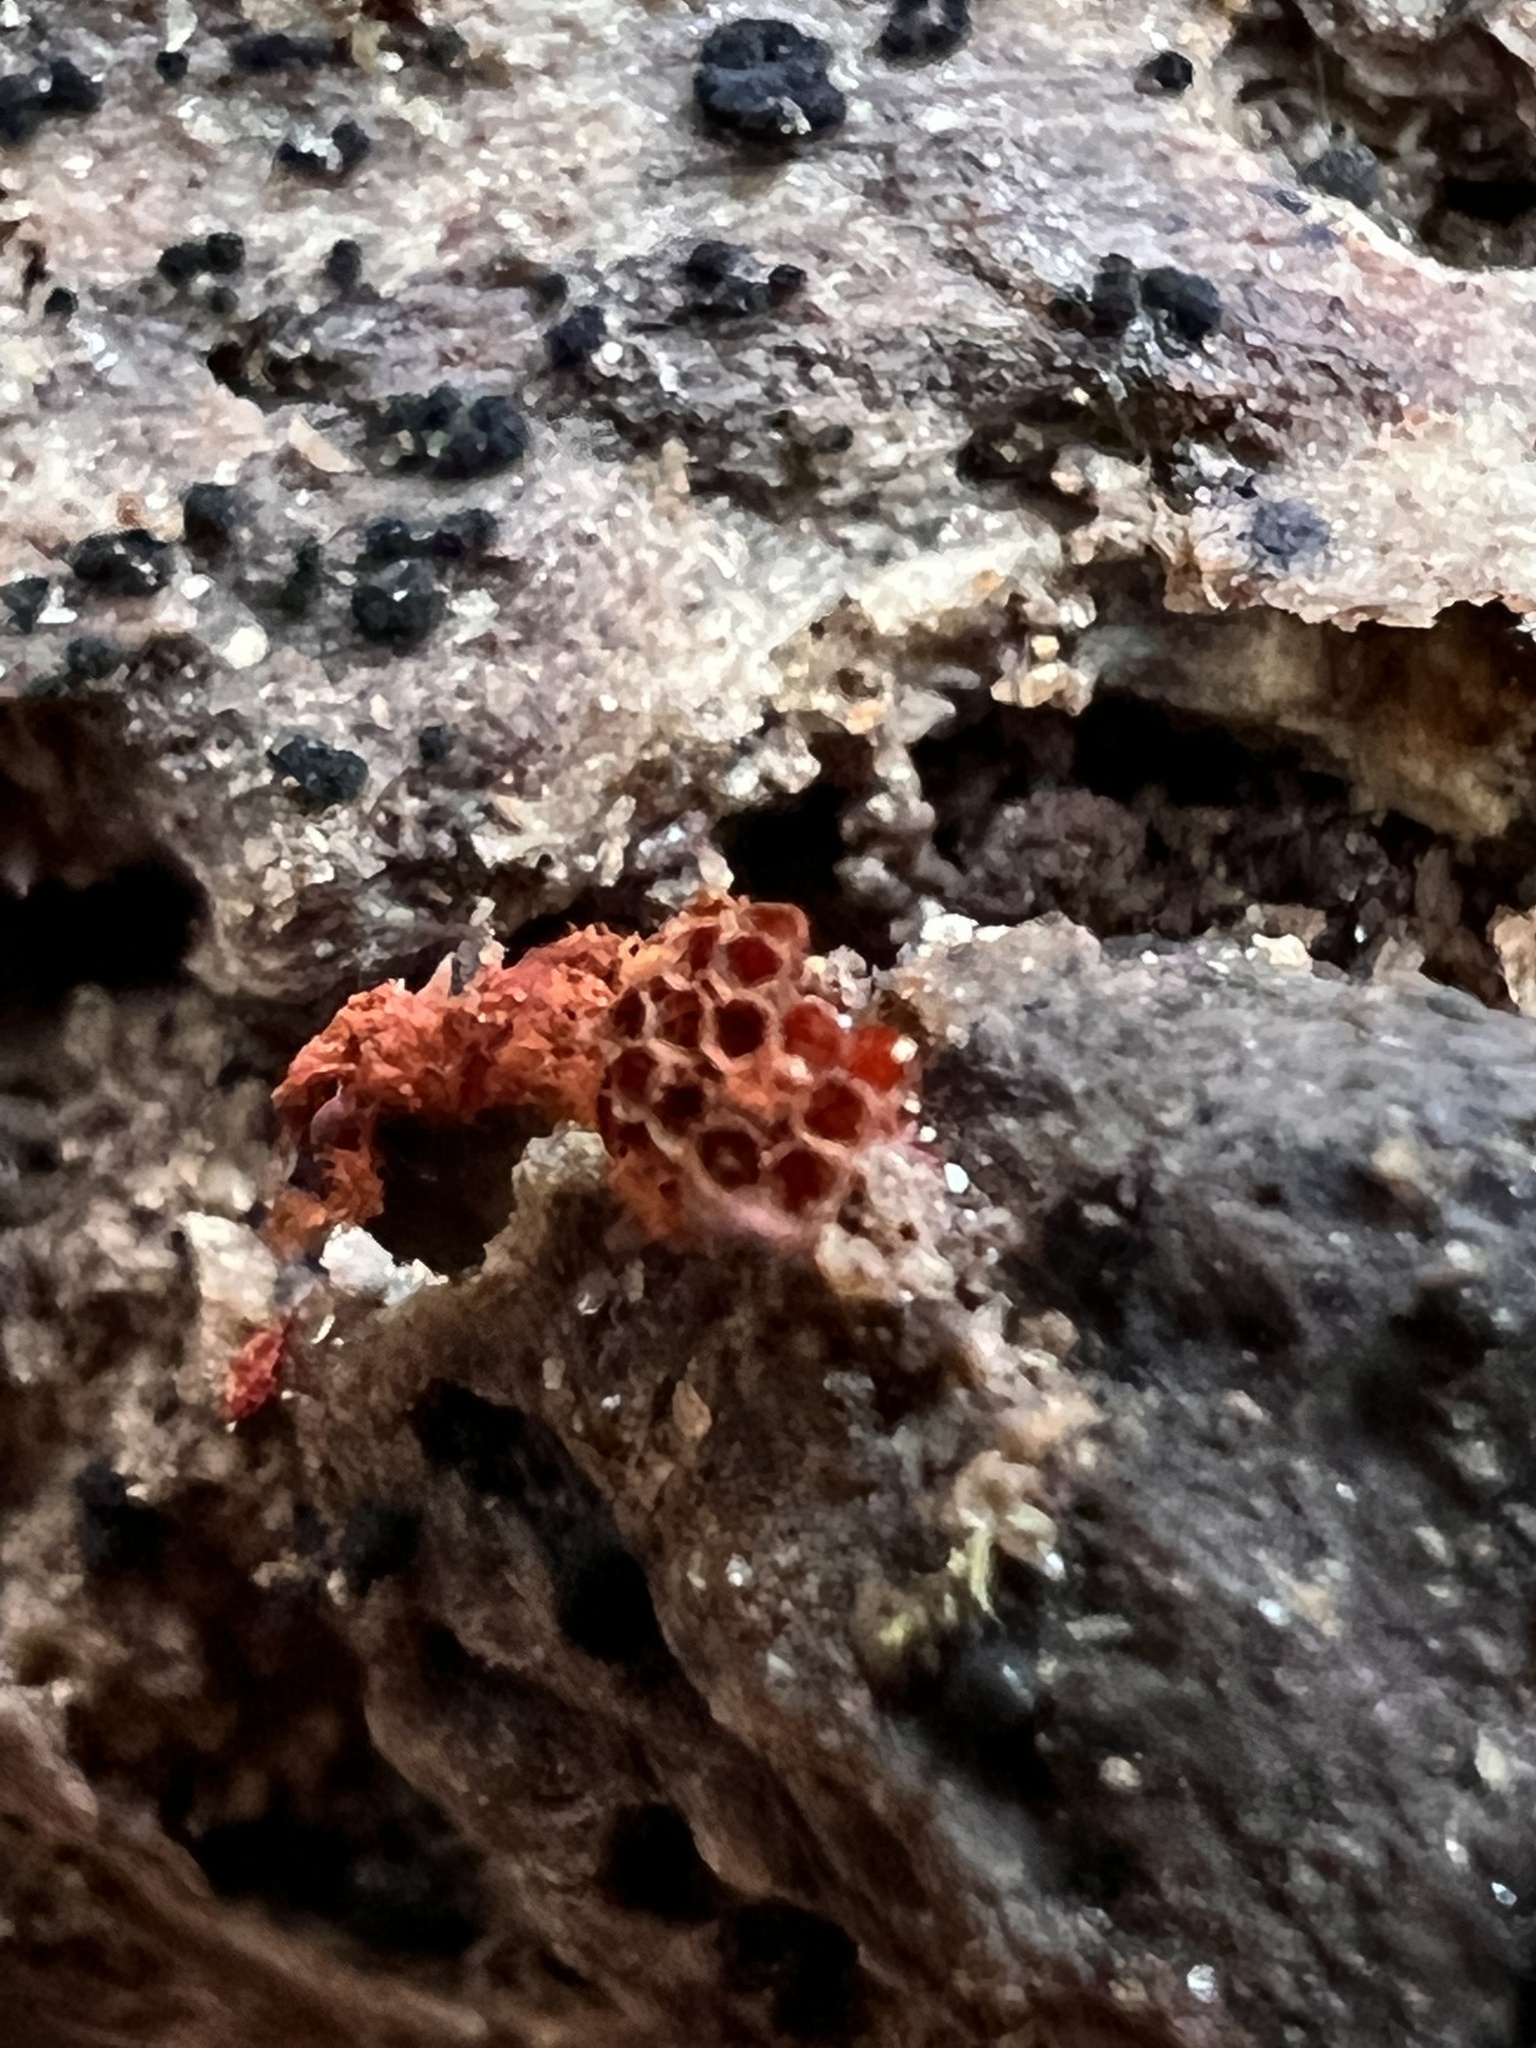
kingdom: Protozoa
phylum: Mycetozoa
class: Myxomycetes
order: Trichiales
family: Trichiaceae
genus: Metatrichia
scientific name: Metatrichia vesparia
